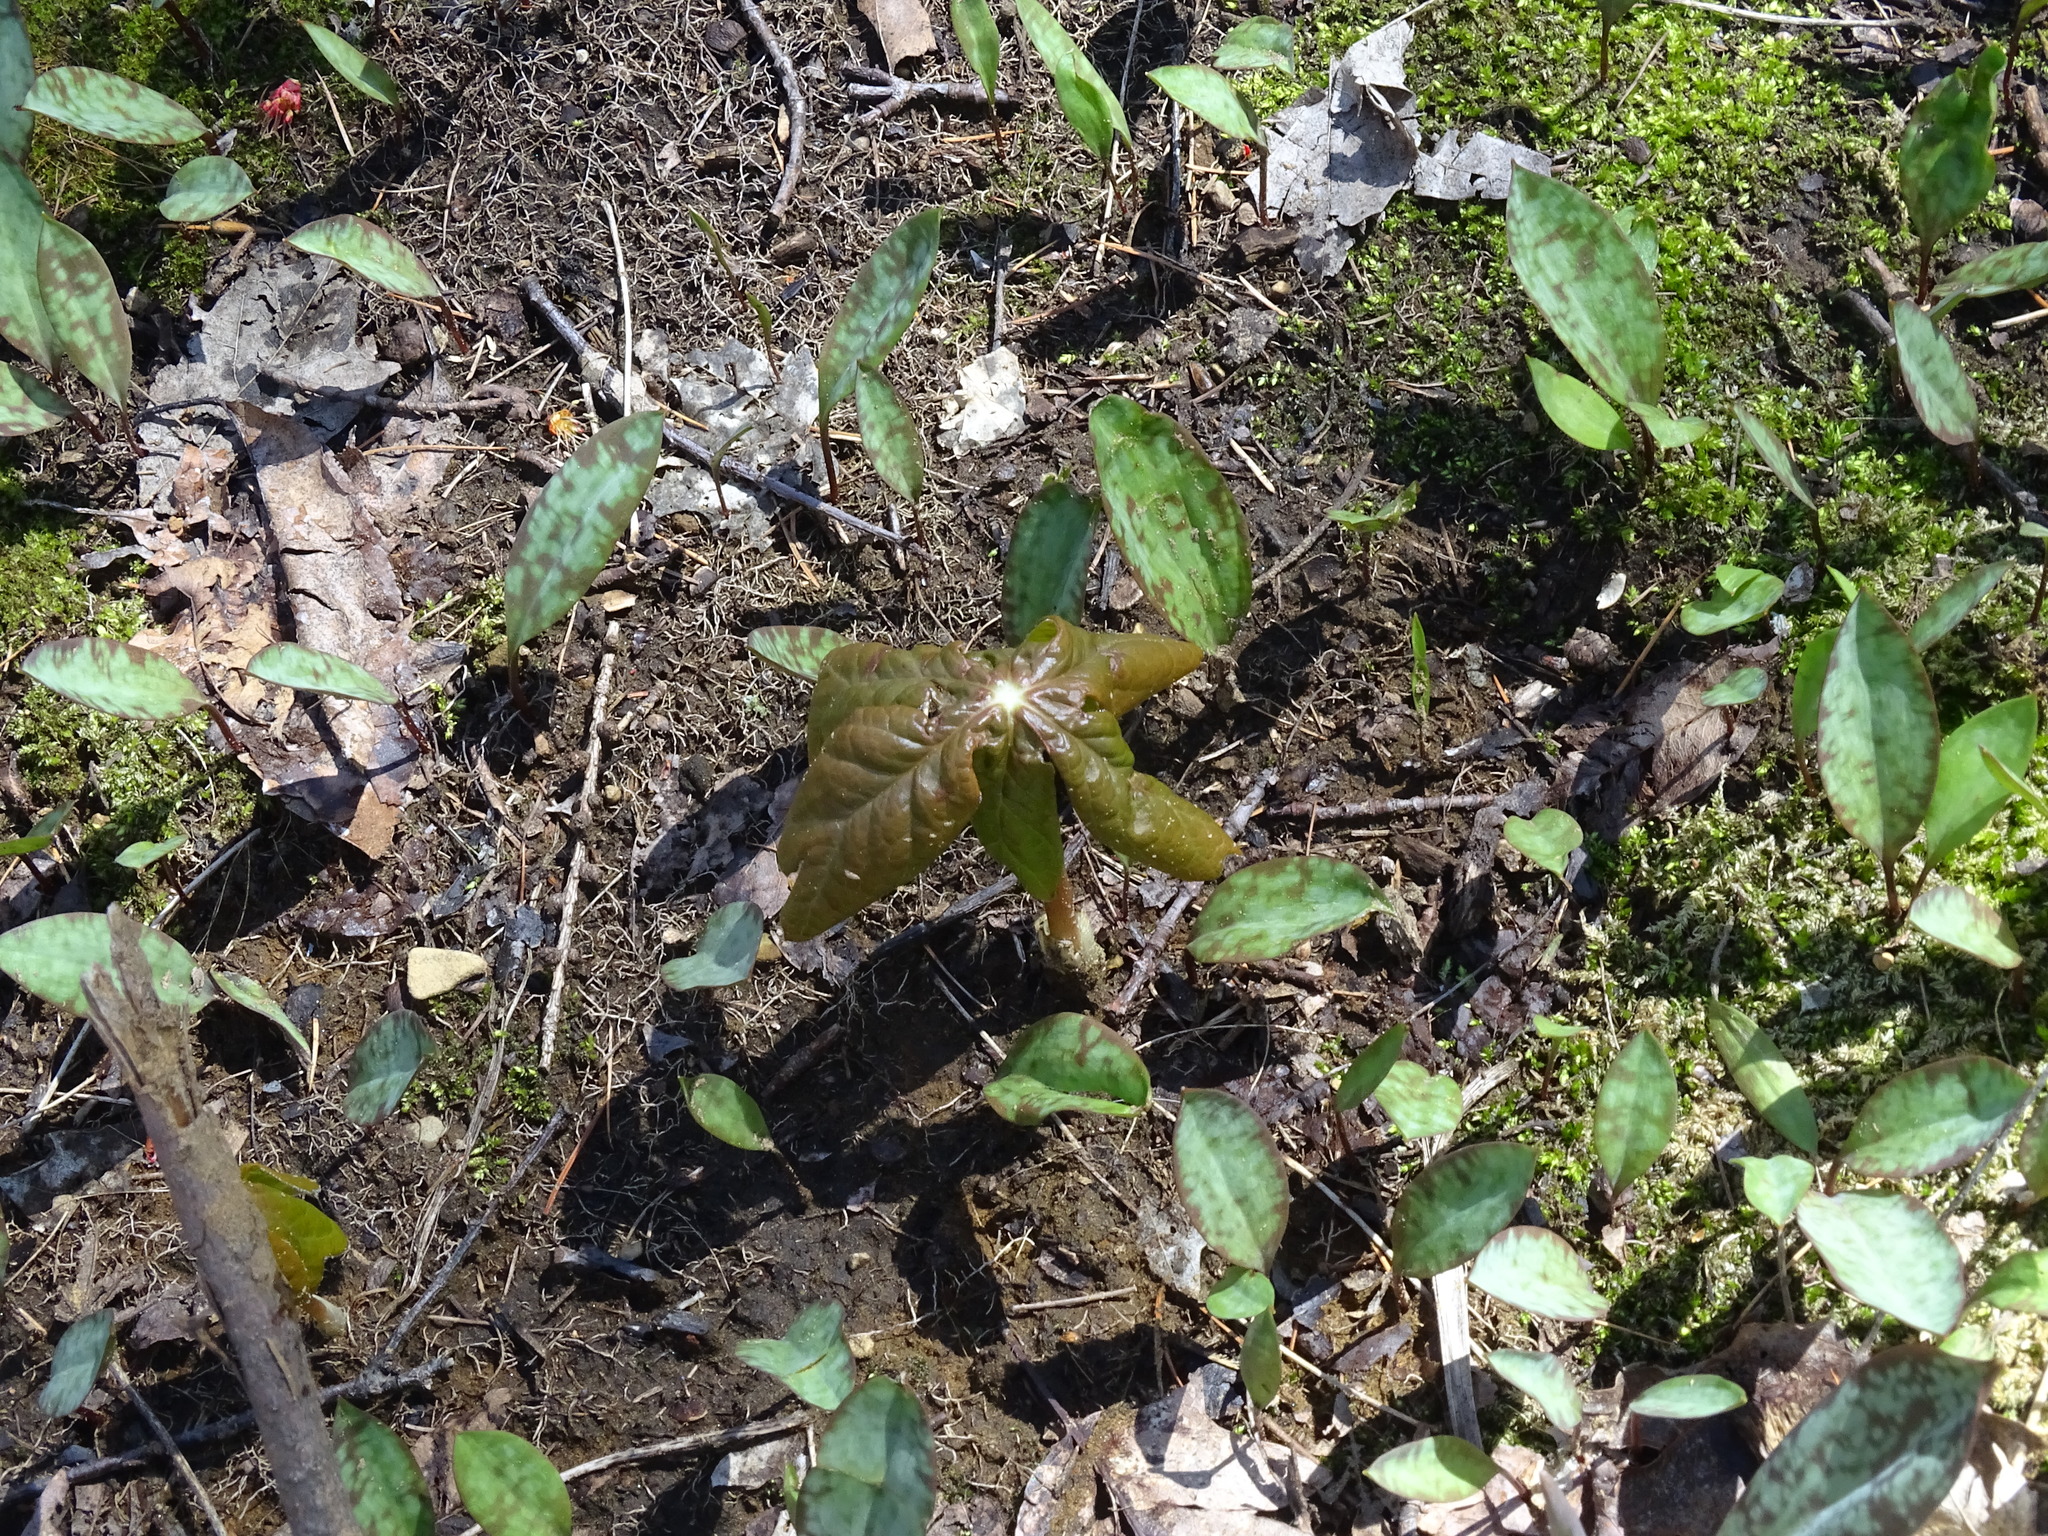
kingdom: Plantae
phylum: Tracheophyta
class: Magnoliopsida
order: Ranunculales
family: Berberidaceae
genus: Podophyllum
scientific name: Podophyllum peltatum
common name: Wild mandrake
